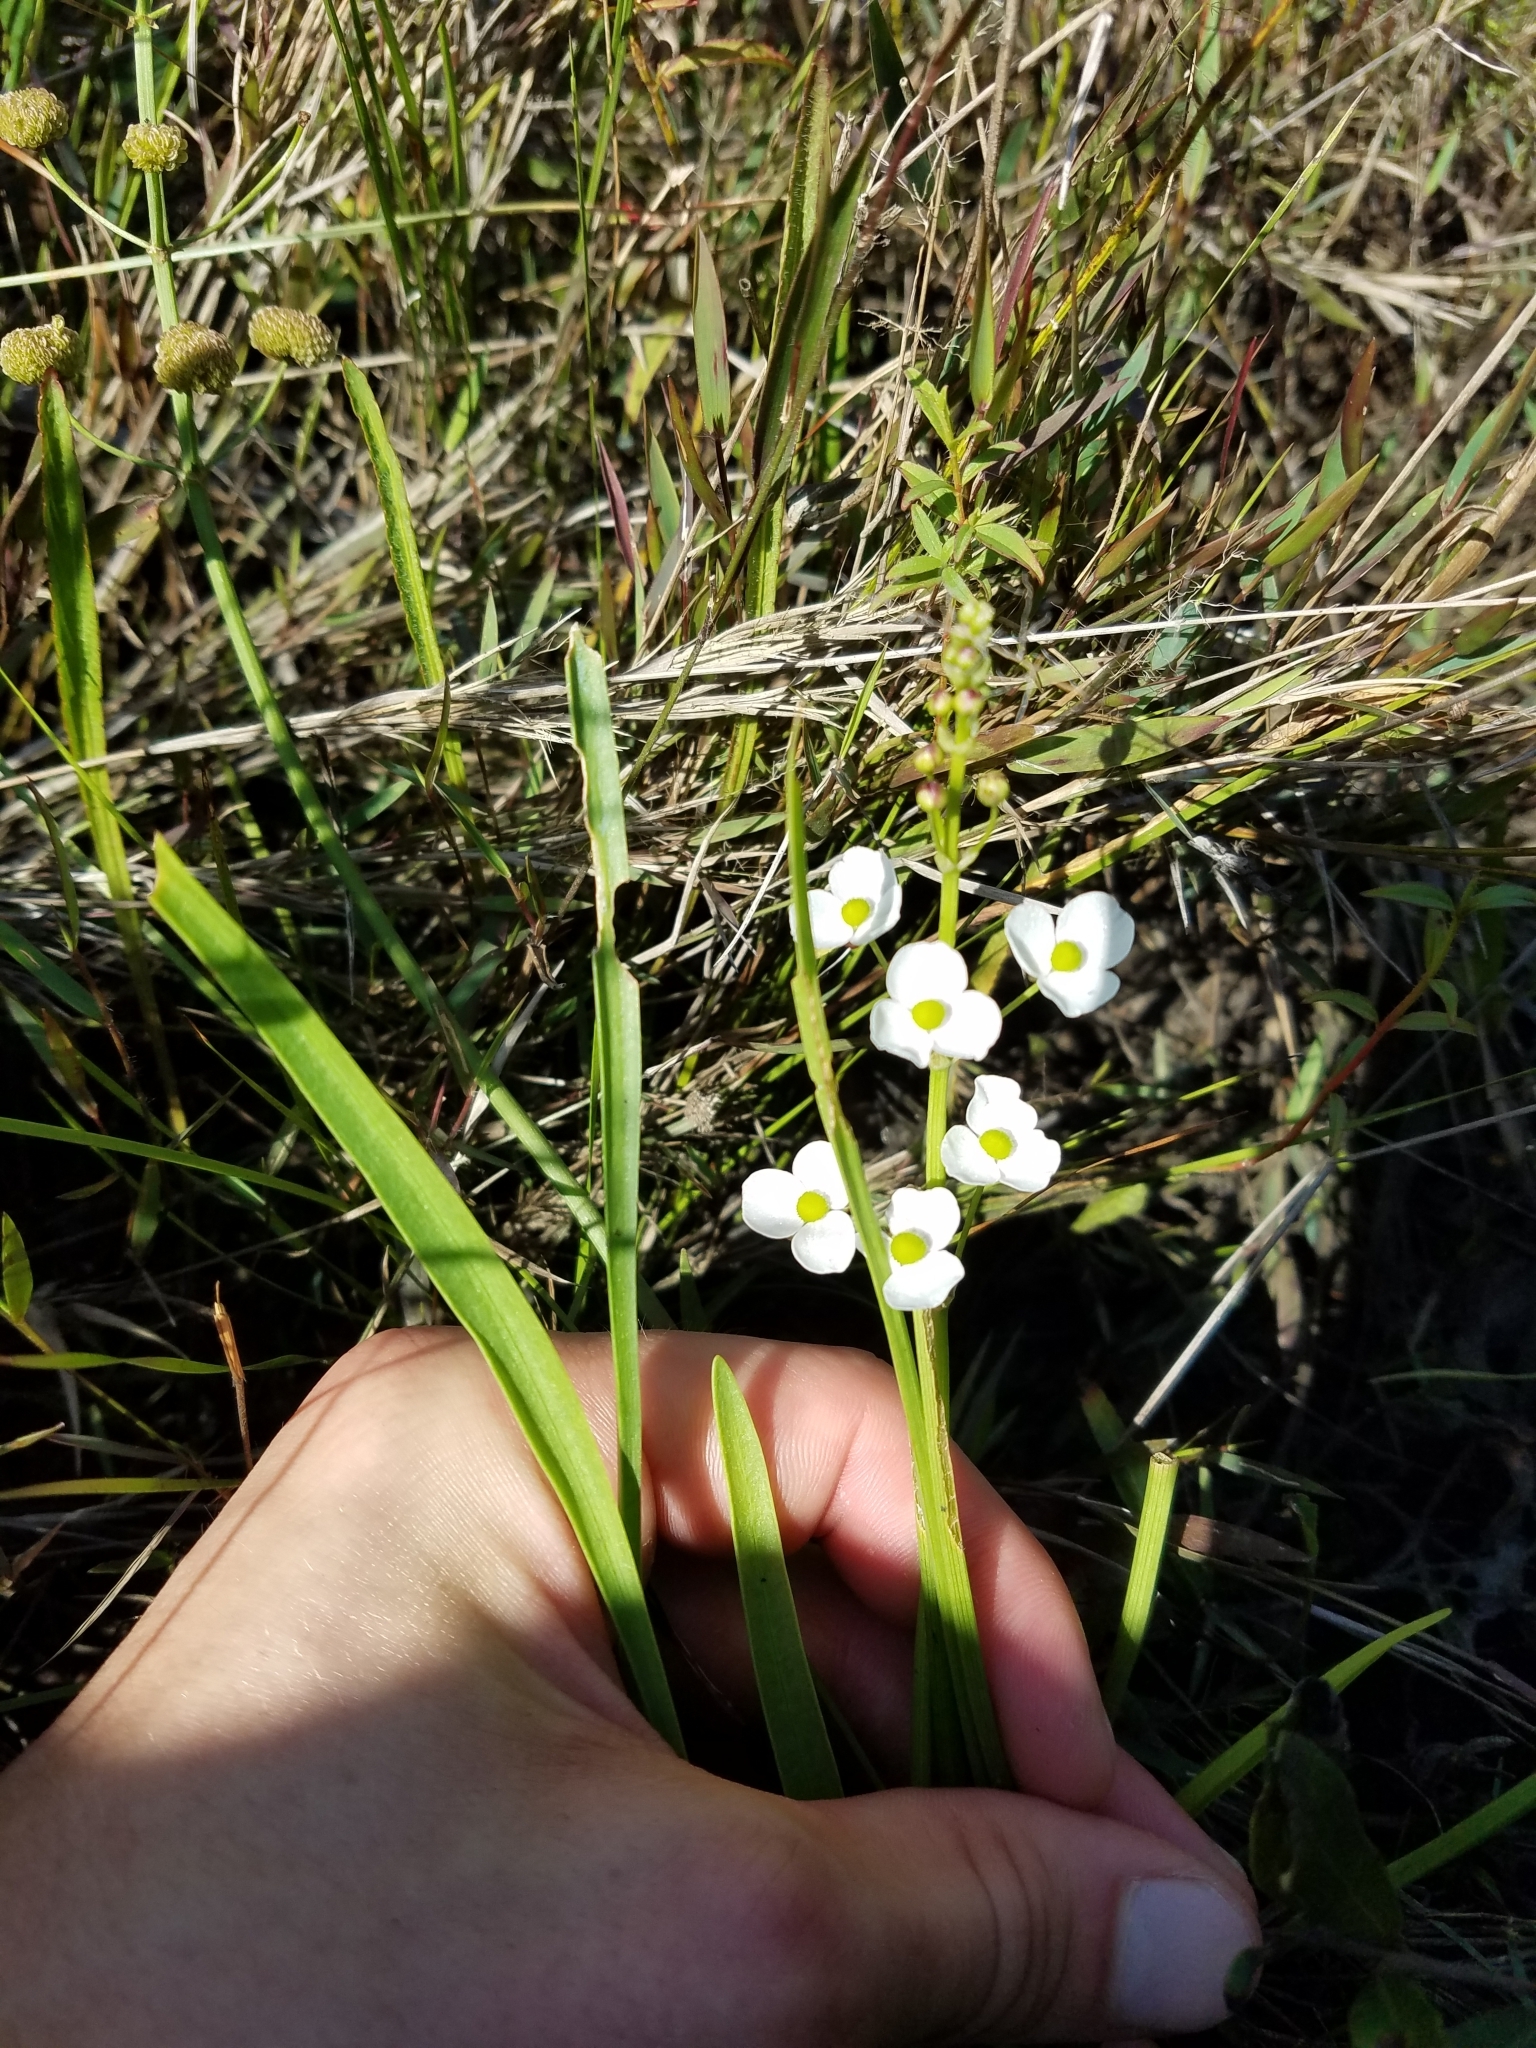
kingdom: Plantae
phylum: Tracheophyta
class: Liliopsida
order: Alismatales
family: Alismataceae
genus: Sagittaria
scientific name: Sagittaria graminea
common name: Grass-leaved arrowhead
